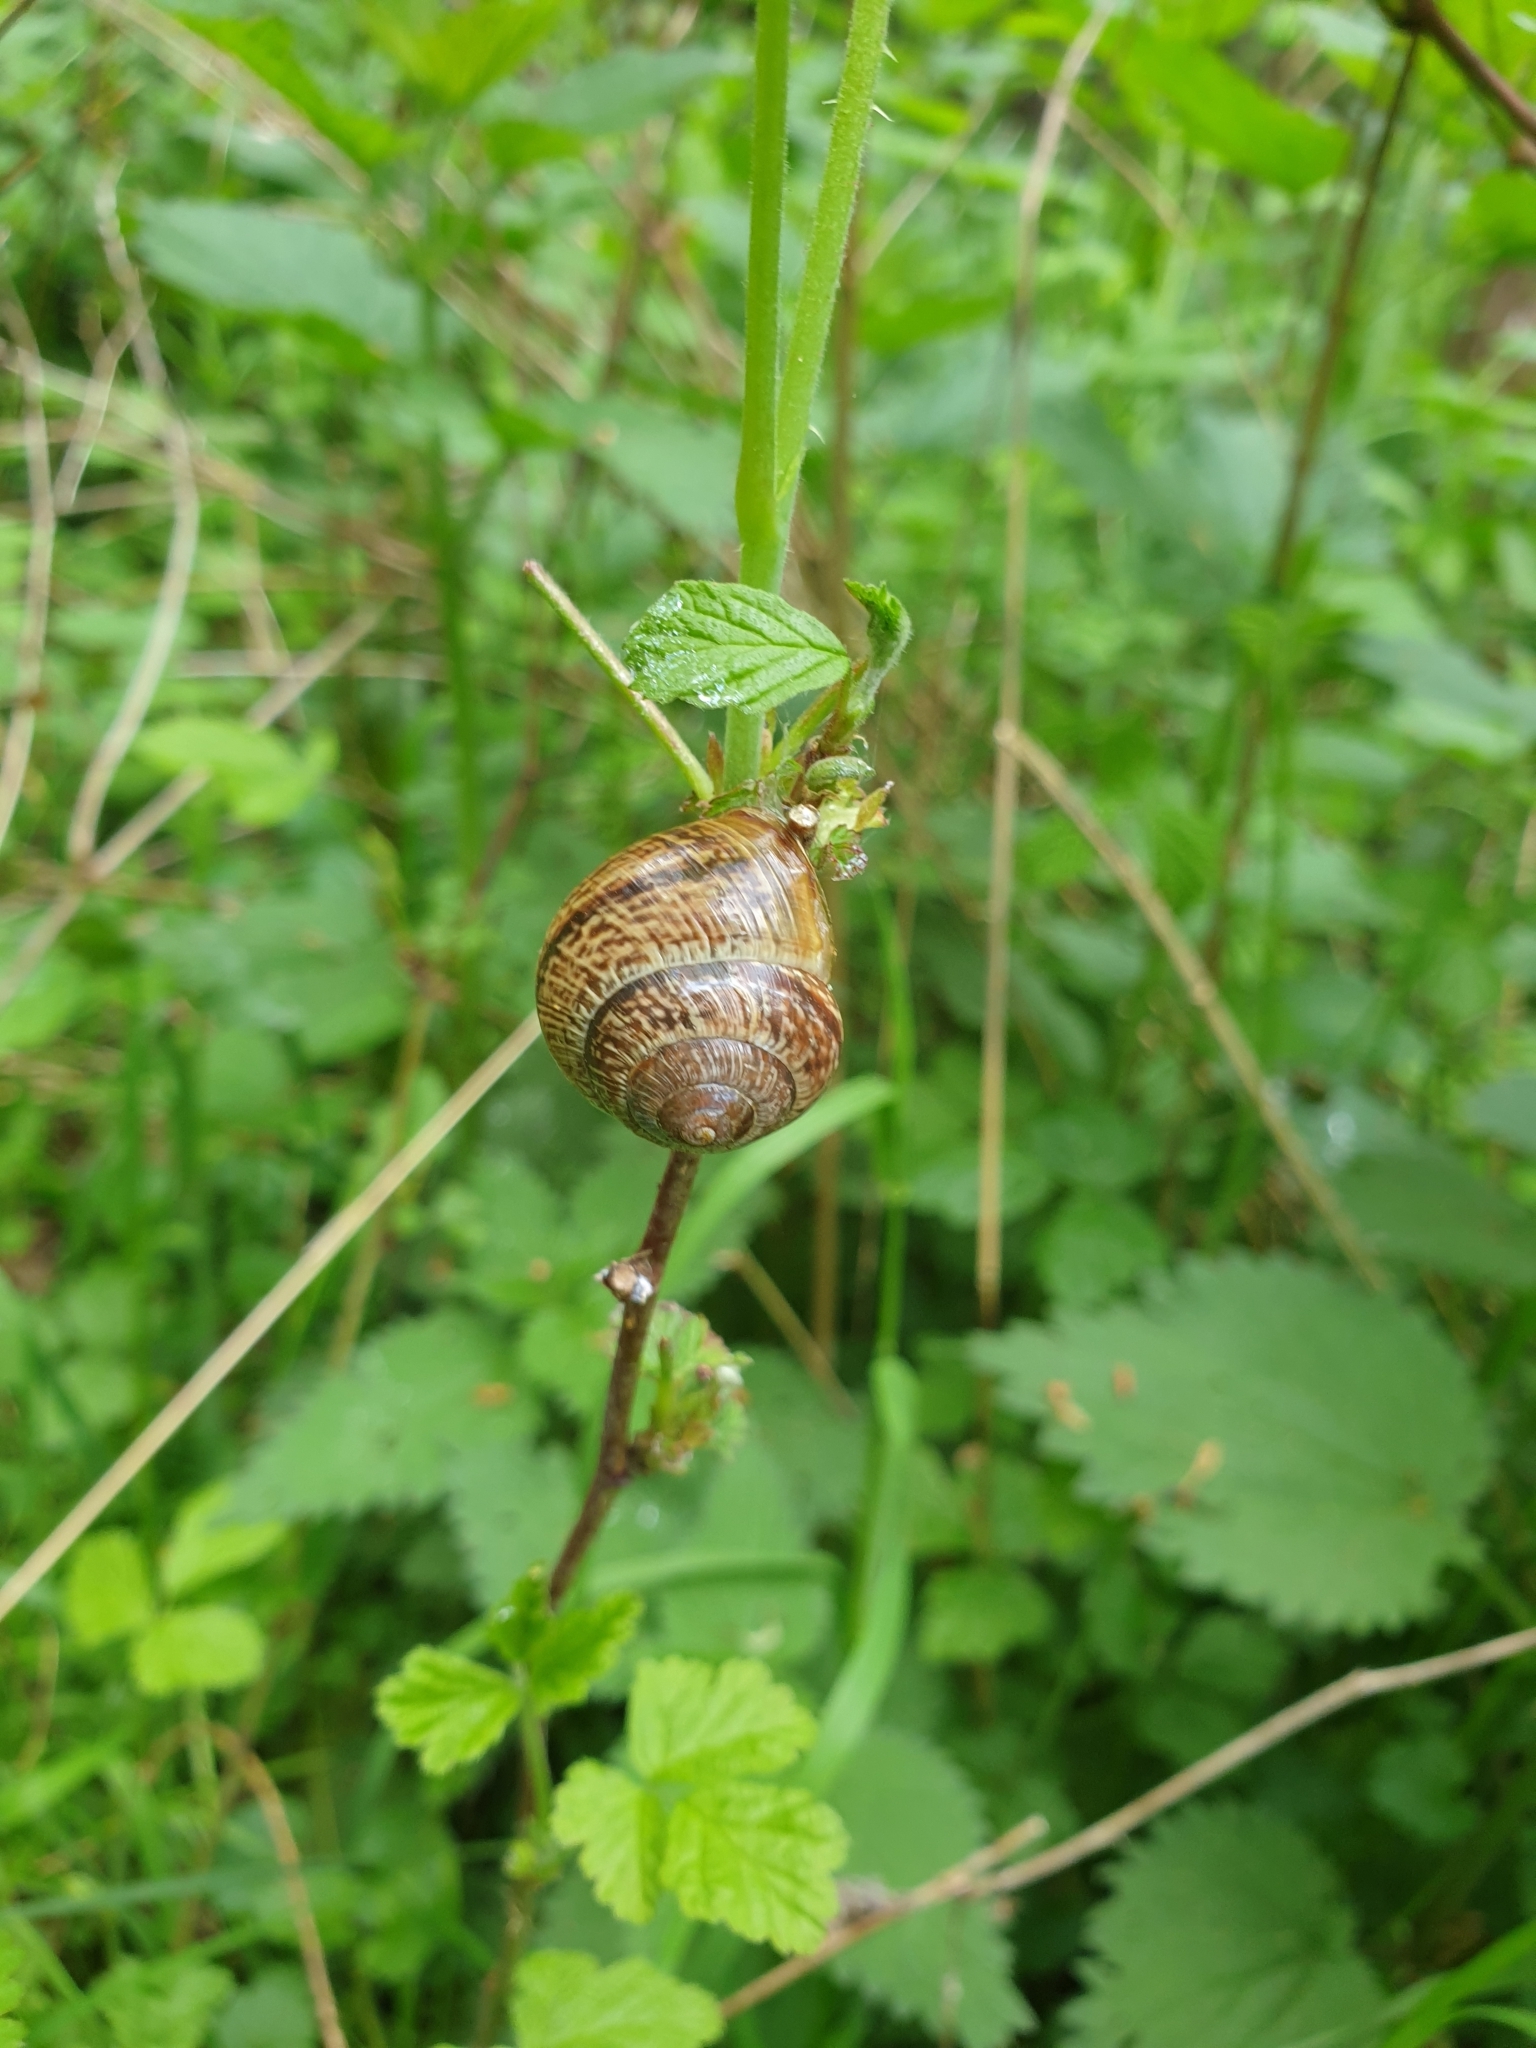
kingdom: Animalia
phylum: Mollusca
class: Gastropoda
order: Stylommatophora
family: Helicidae
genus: Arianta
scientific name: Arianta arbustorum
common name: Copse snail
